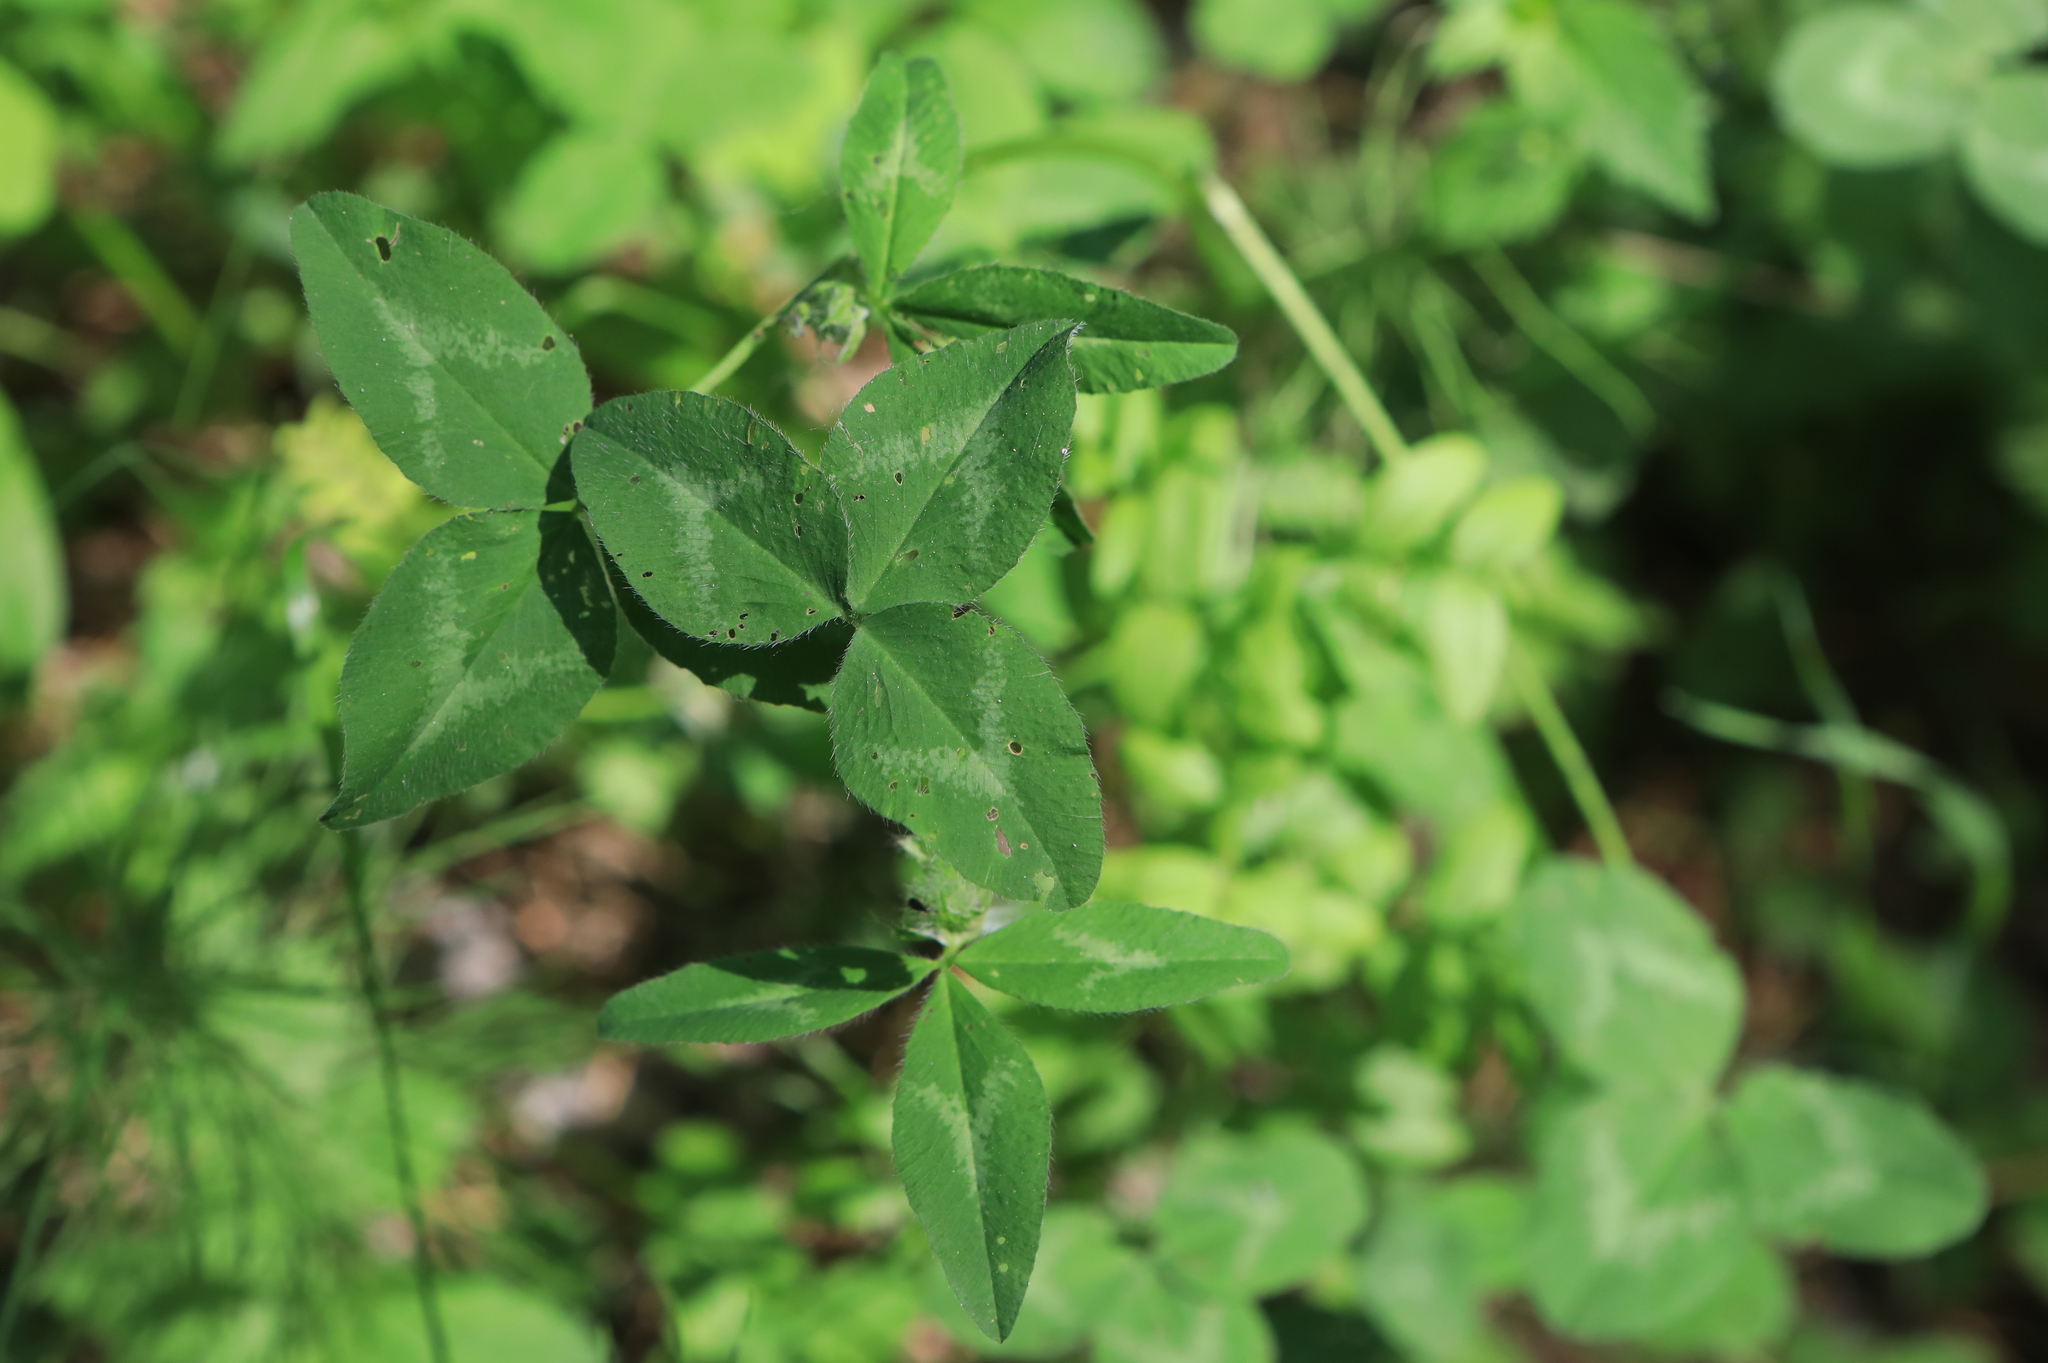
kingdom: Plantae
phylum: Tracheophyta
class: Magnoliopsida
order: Fabales
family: Fabaceae
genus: Trifolium
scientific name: Trifolium pratense
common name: Red clover
